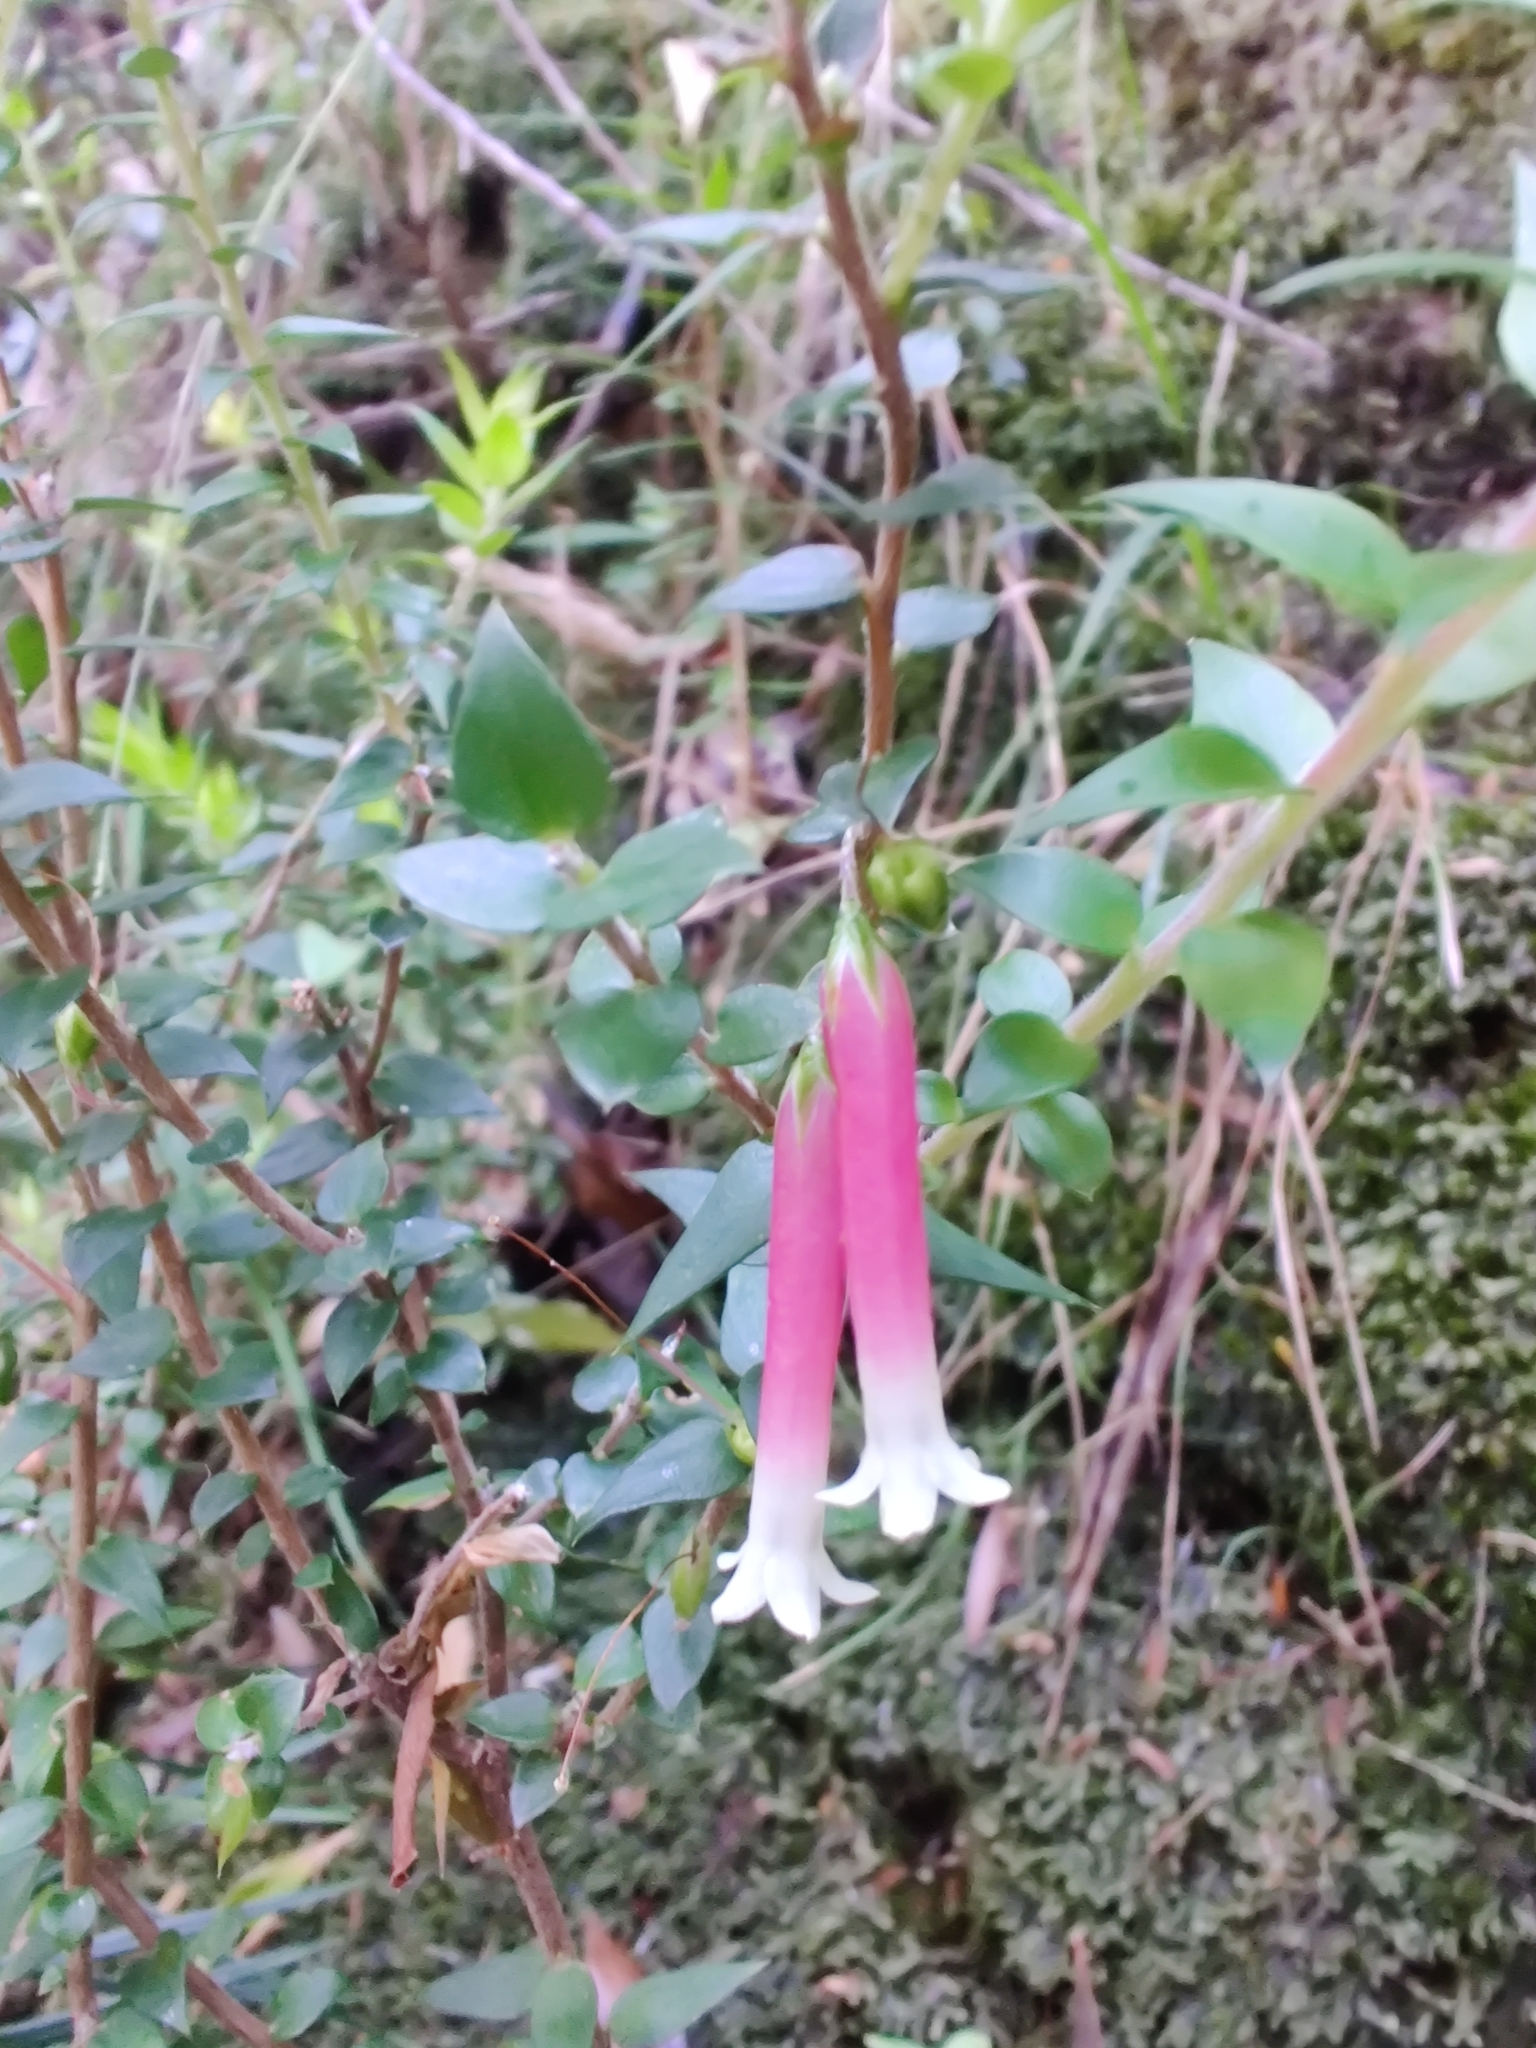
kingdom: Plantae
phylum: Tracheophyta
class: Magnoliopsida
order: Ericales
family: Ericaceae
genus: Epacris
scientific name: Epacris longiflora
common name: Fuchsia-heath
